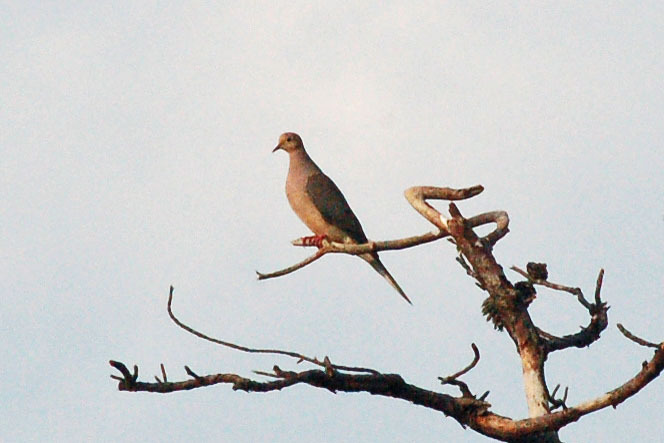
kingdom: Animalia
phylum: Chordata
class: Aves
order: Columbiformes
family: Columbidae
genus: Zenaida
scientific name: Zenaida macroura
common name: Mourning dove
